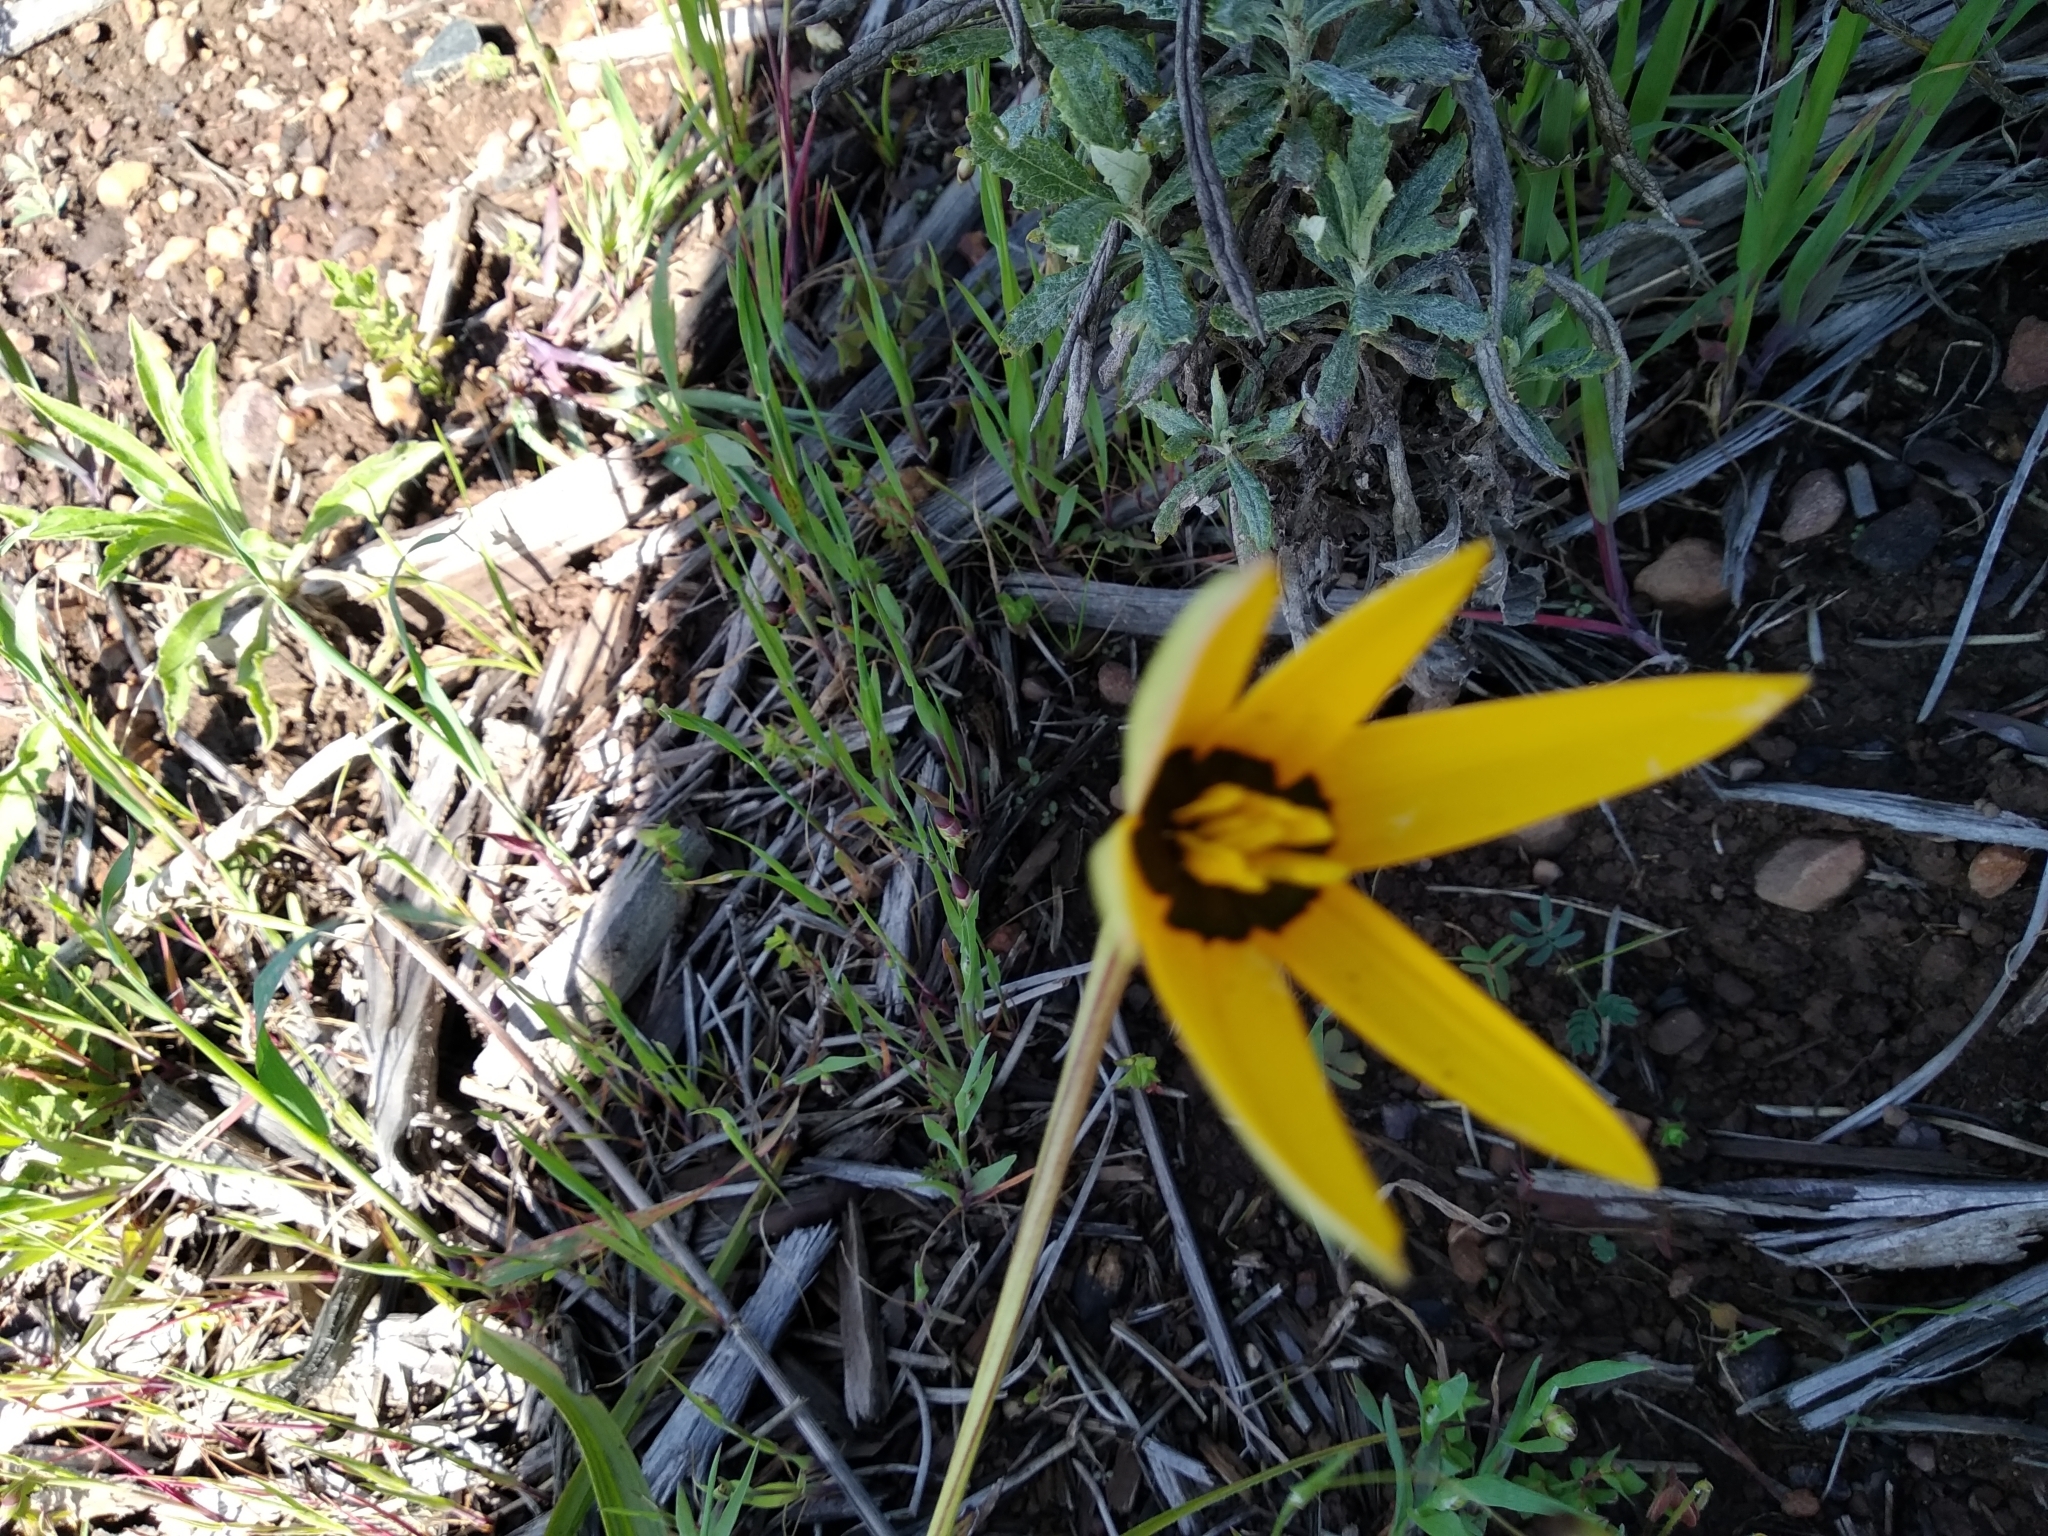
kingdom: Plantae
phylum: Tracheophyta
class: Liliopsida
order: Asparagales
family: Hypoxidaceae
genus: Pauridia
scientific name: Pauridia capensis
